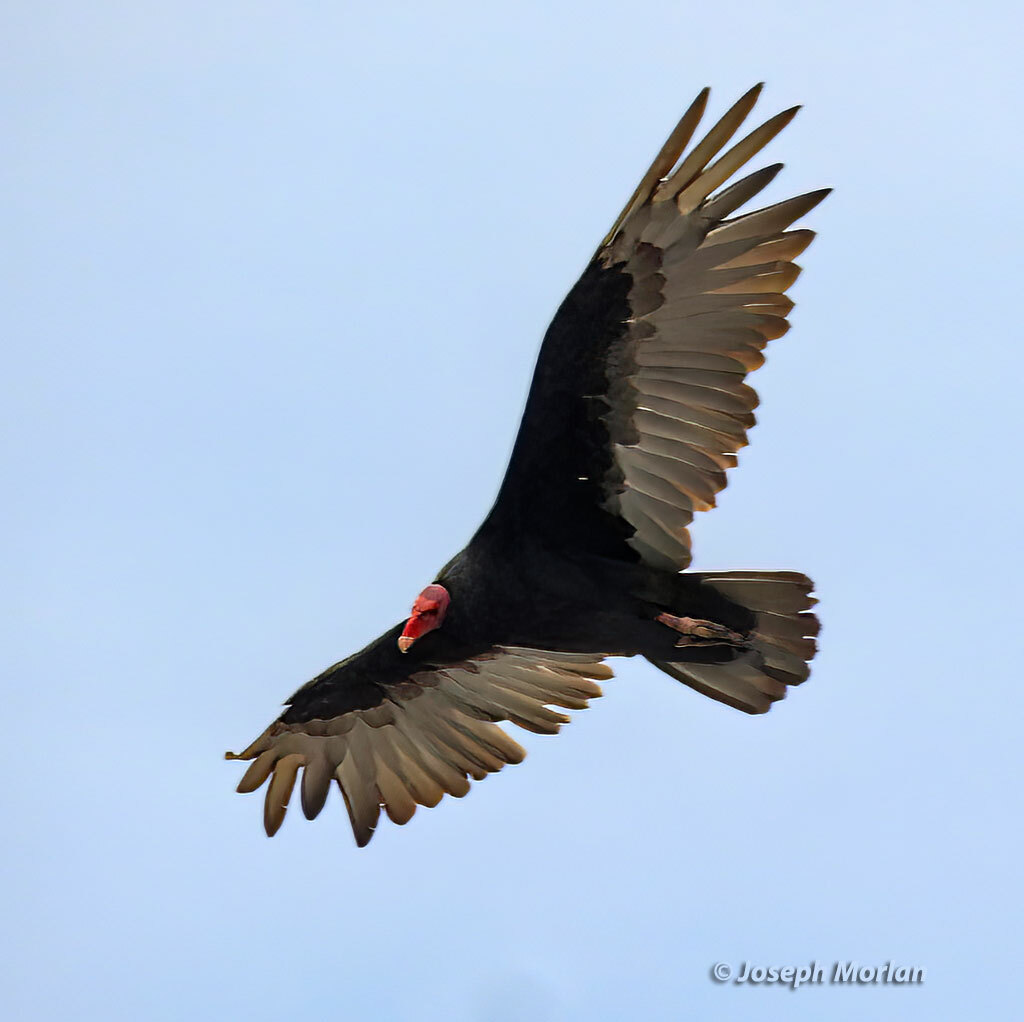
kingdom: Animalia
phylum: Chordata
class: Aves
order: Accipitriformes
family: Cathartidae
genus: Cathartes
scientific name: Cathartes aura
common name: Turkey vulture
